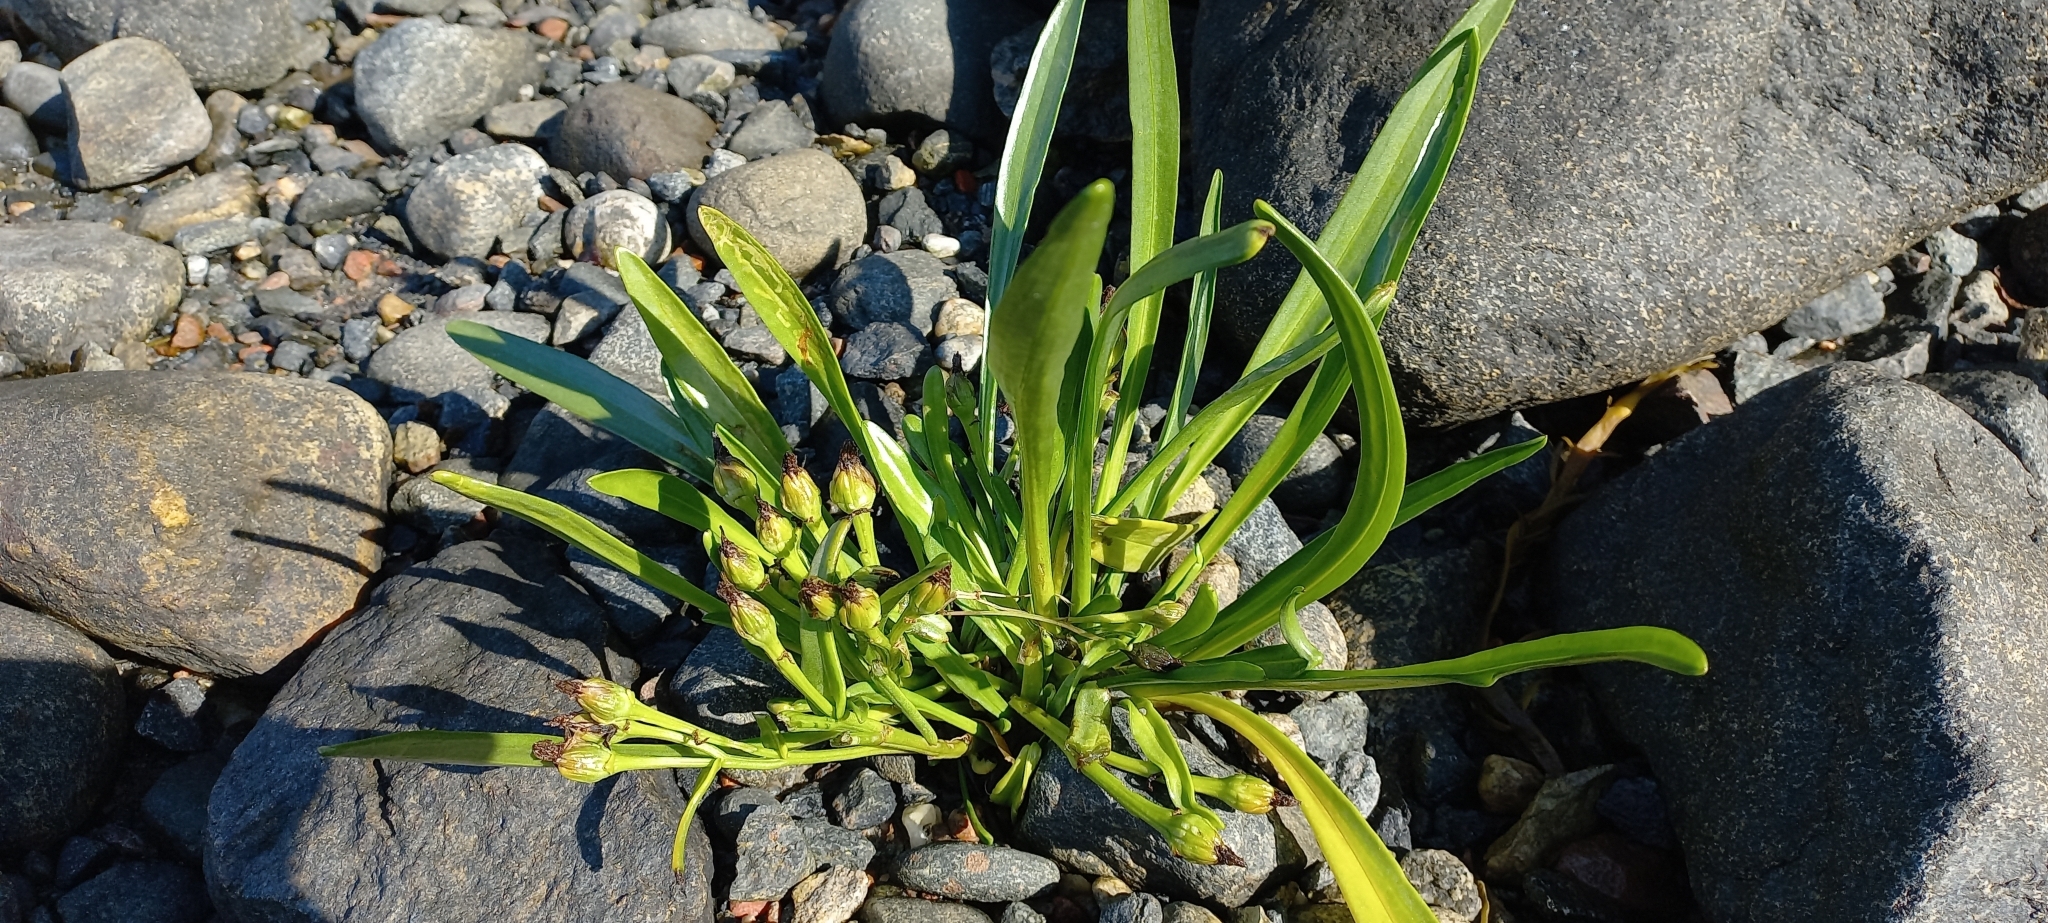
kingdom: Plantae
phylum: Tracheophyta
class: Magnoliopsida
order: Asterales
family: Asteraceae
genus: Tripolium
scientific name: Tripolium pannonicum
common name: Sea aster
